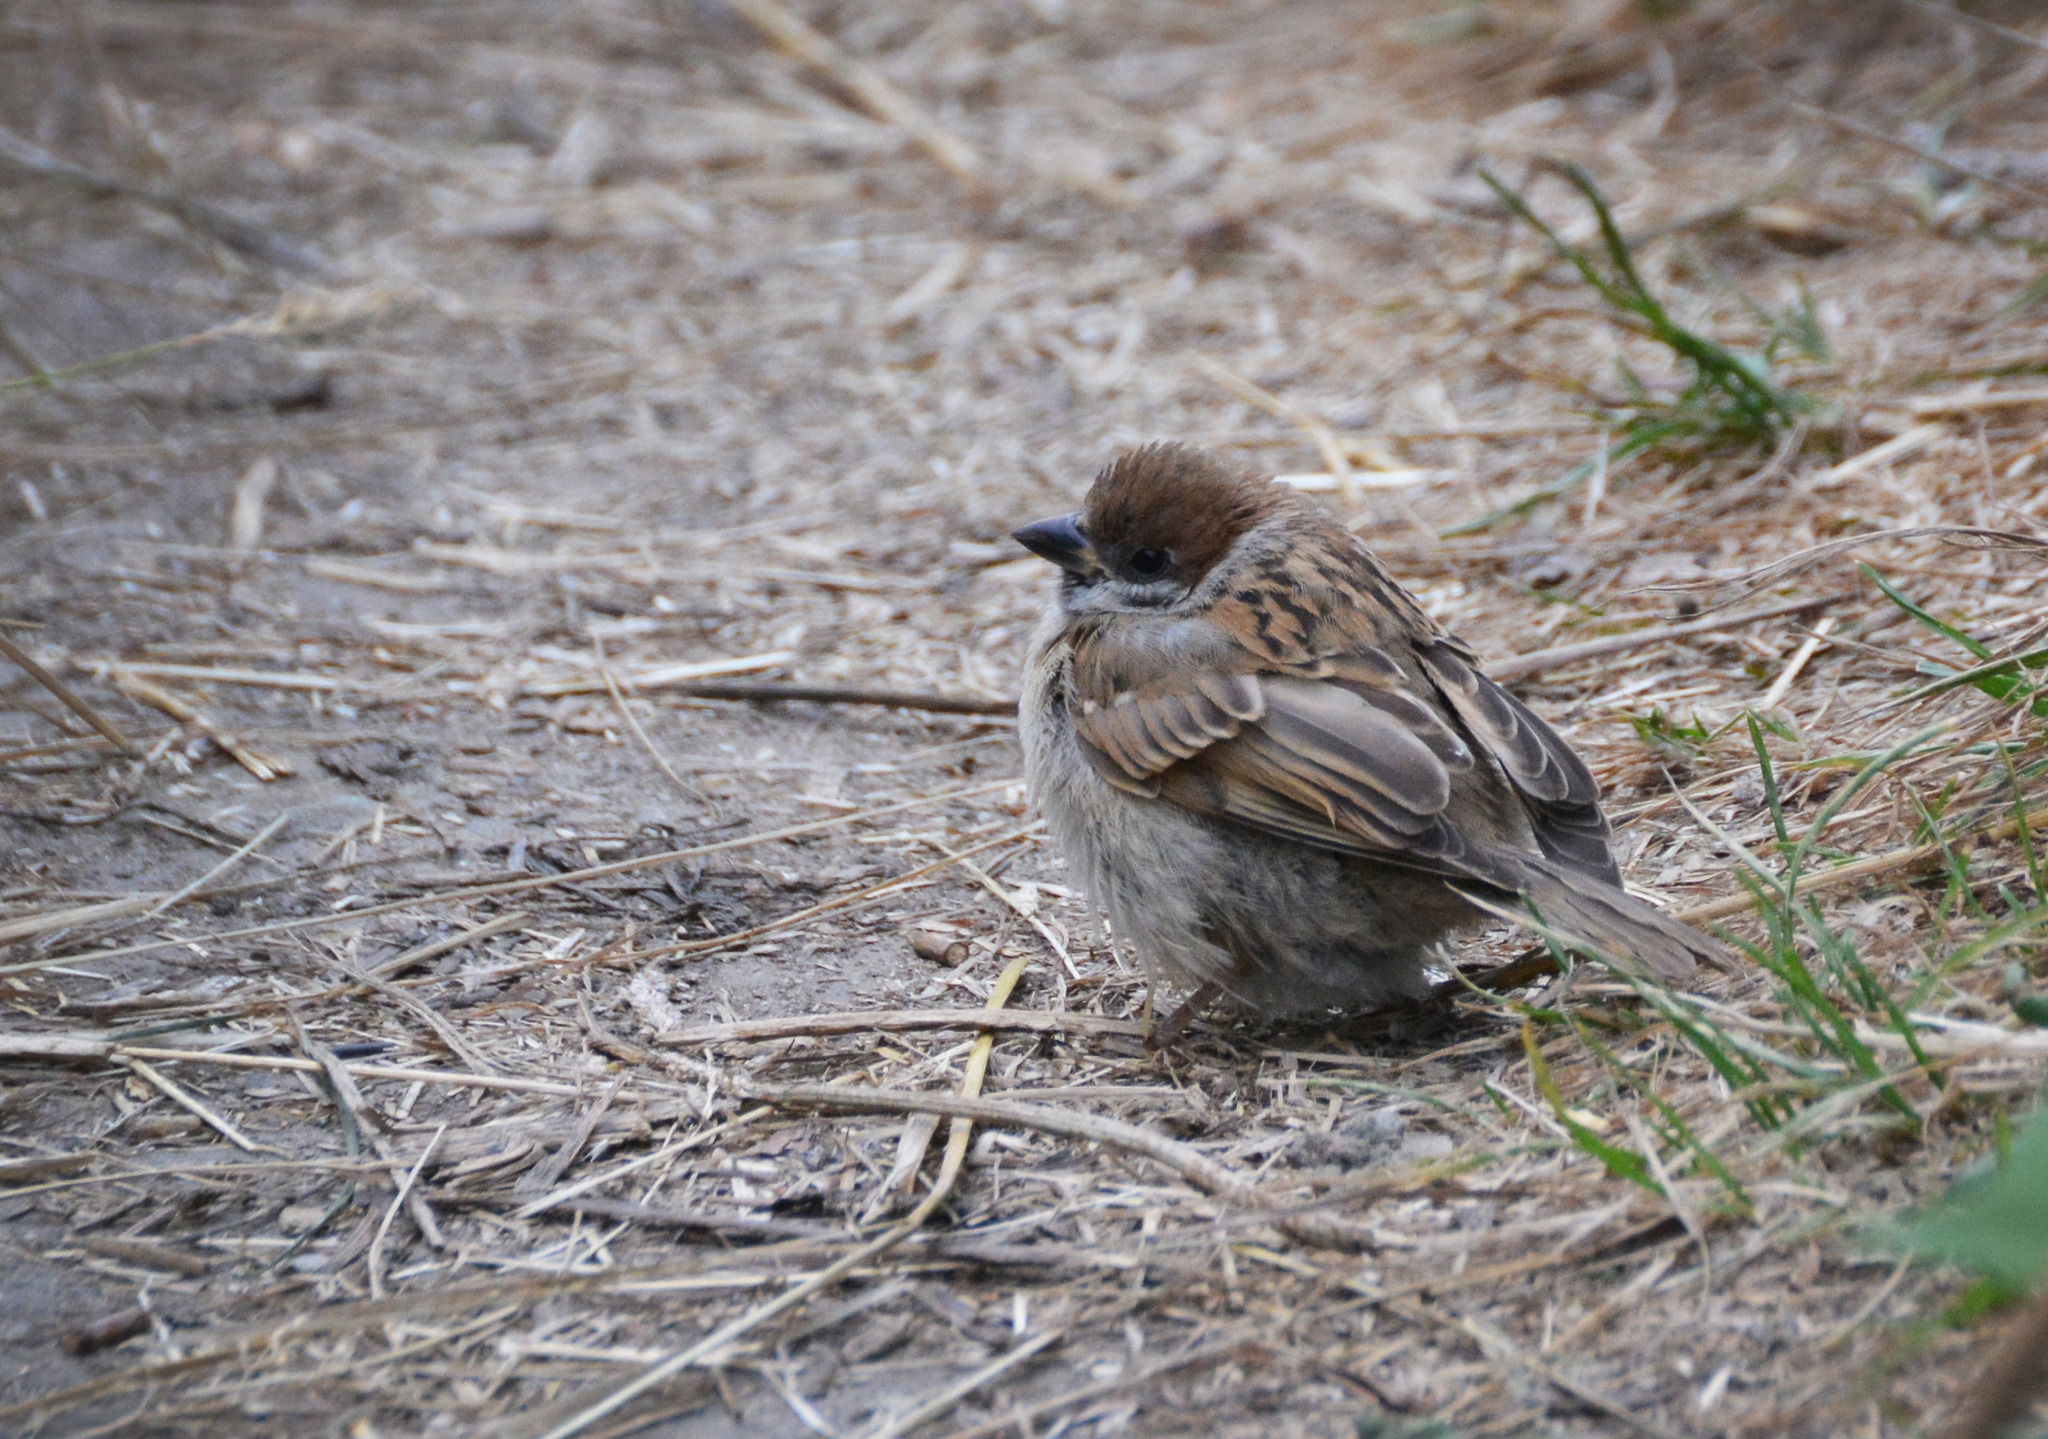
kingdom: Animalia
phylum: Chordata
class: Aves
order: Passeriformes
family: Passeridae
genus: Passer
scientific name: Passer montanus
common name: Eurasian tree sparrow
